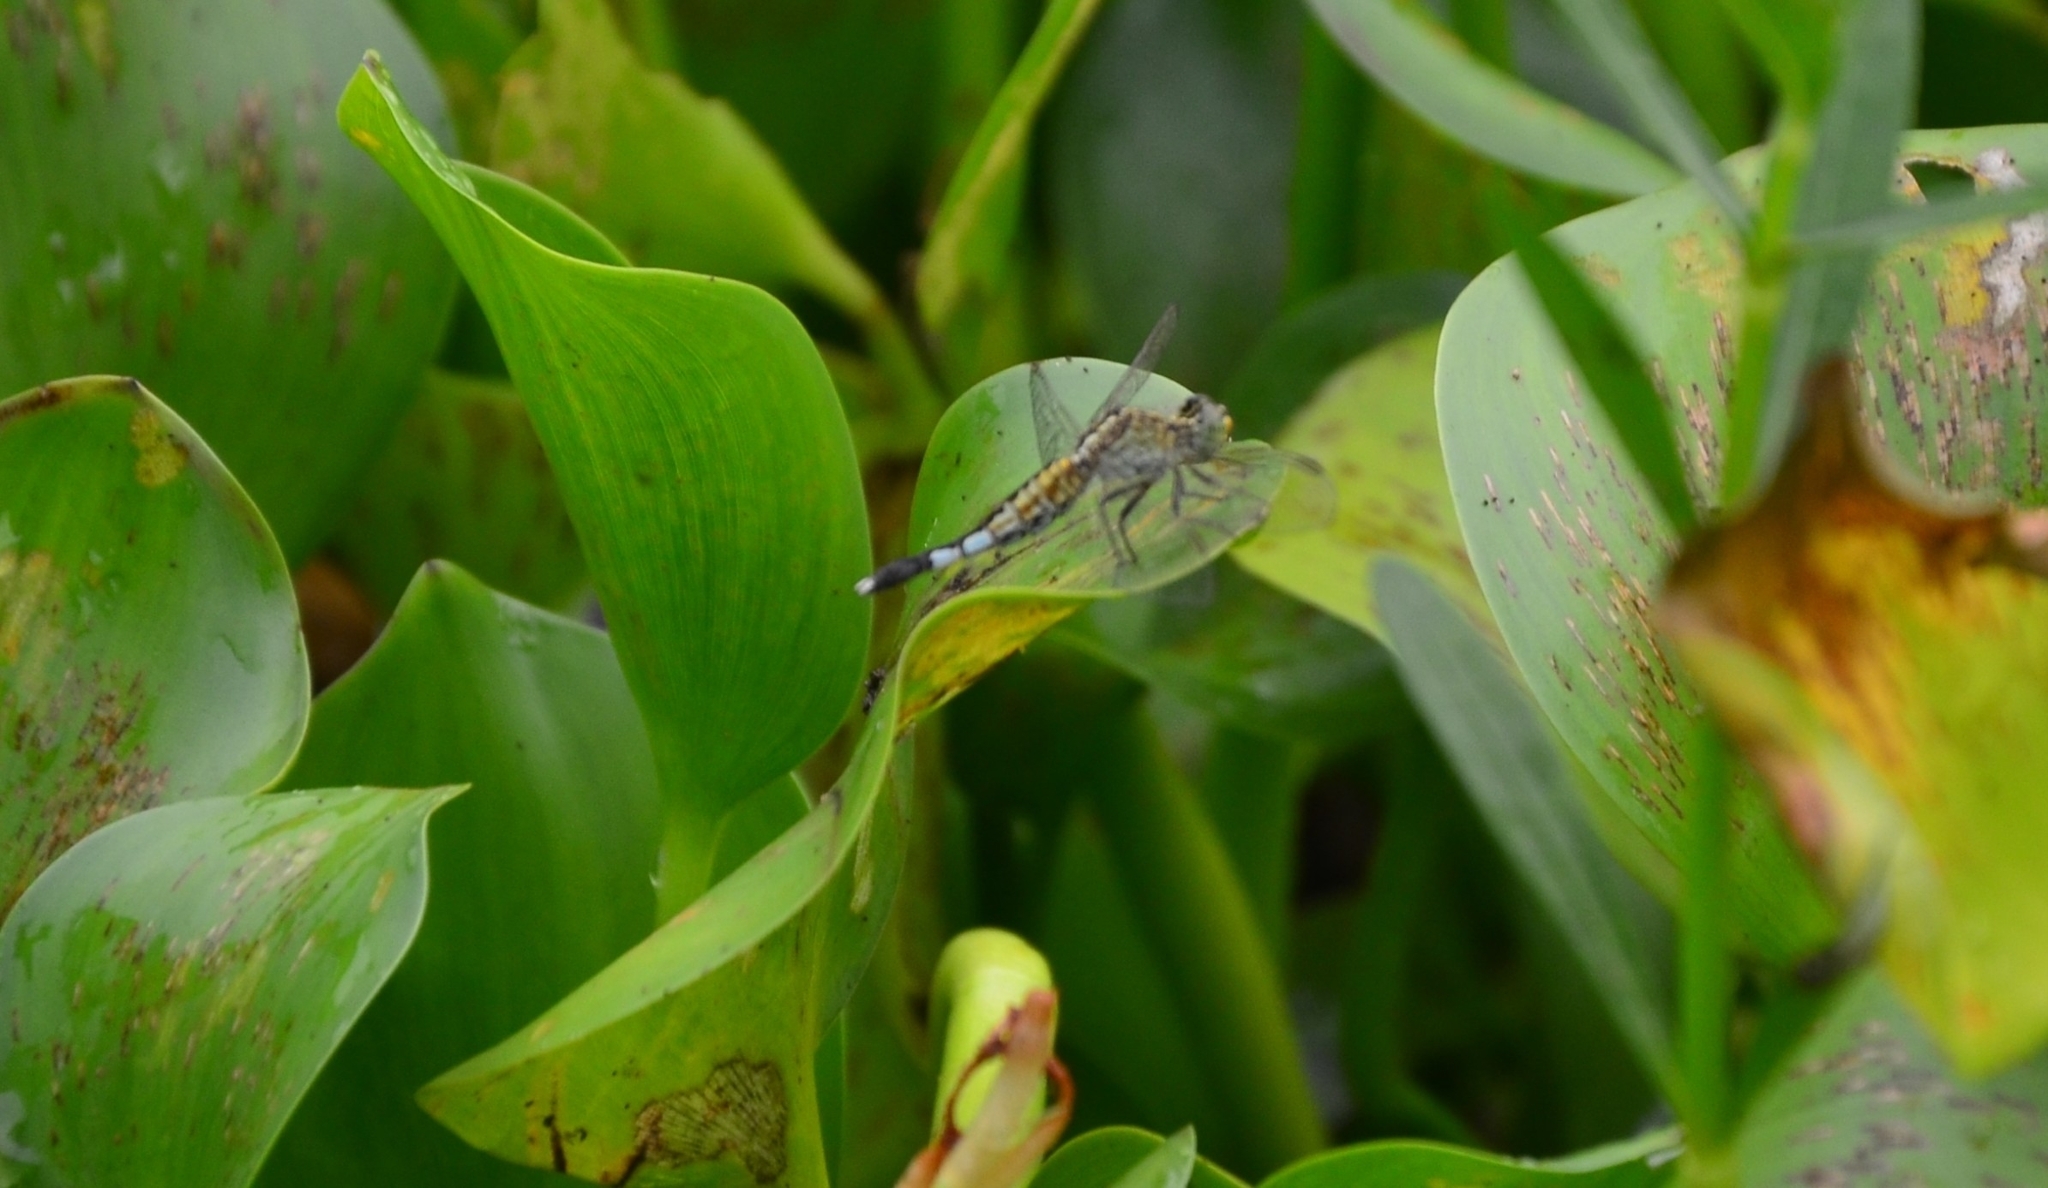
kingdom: Animalia
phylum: Arthropoda
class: Insecta
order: Odonata
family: Libellulidae
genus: Acisoma
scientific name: Acisoma panorpoides
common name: Asian pintail
